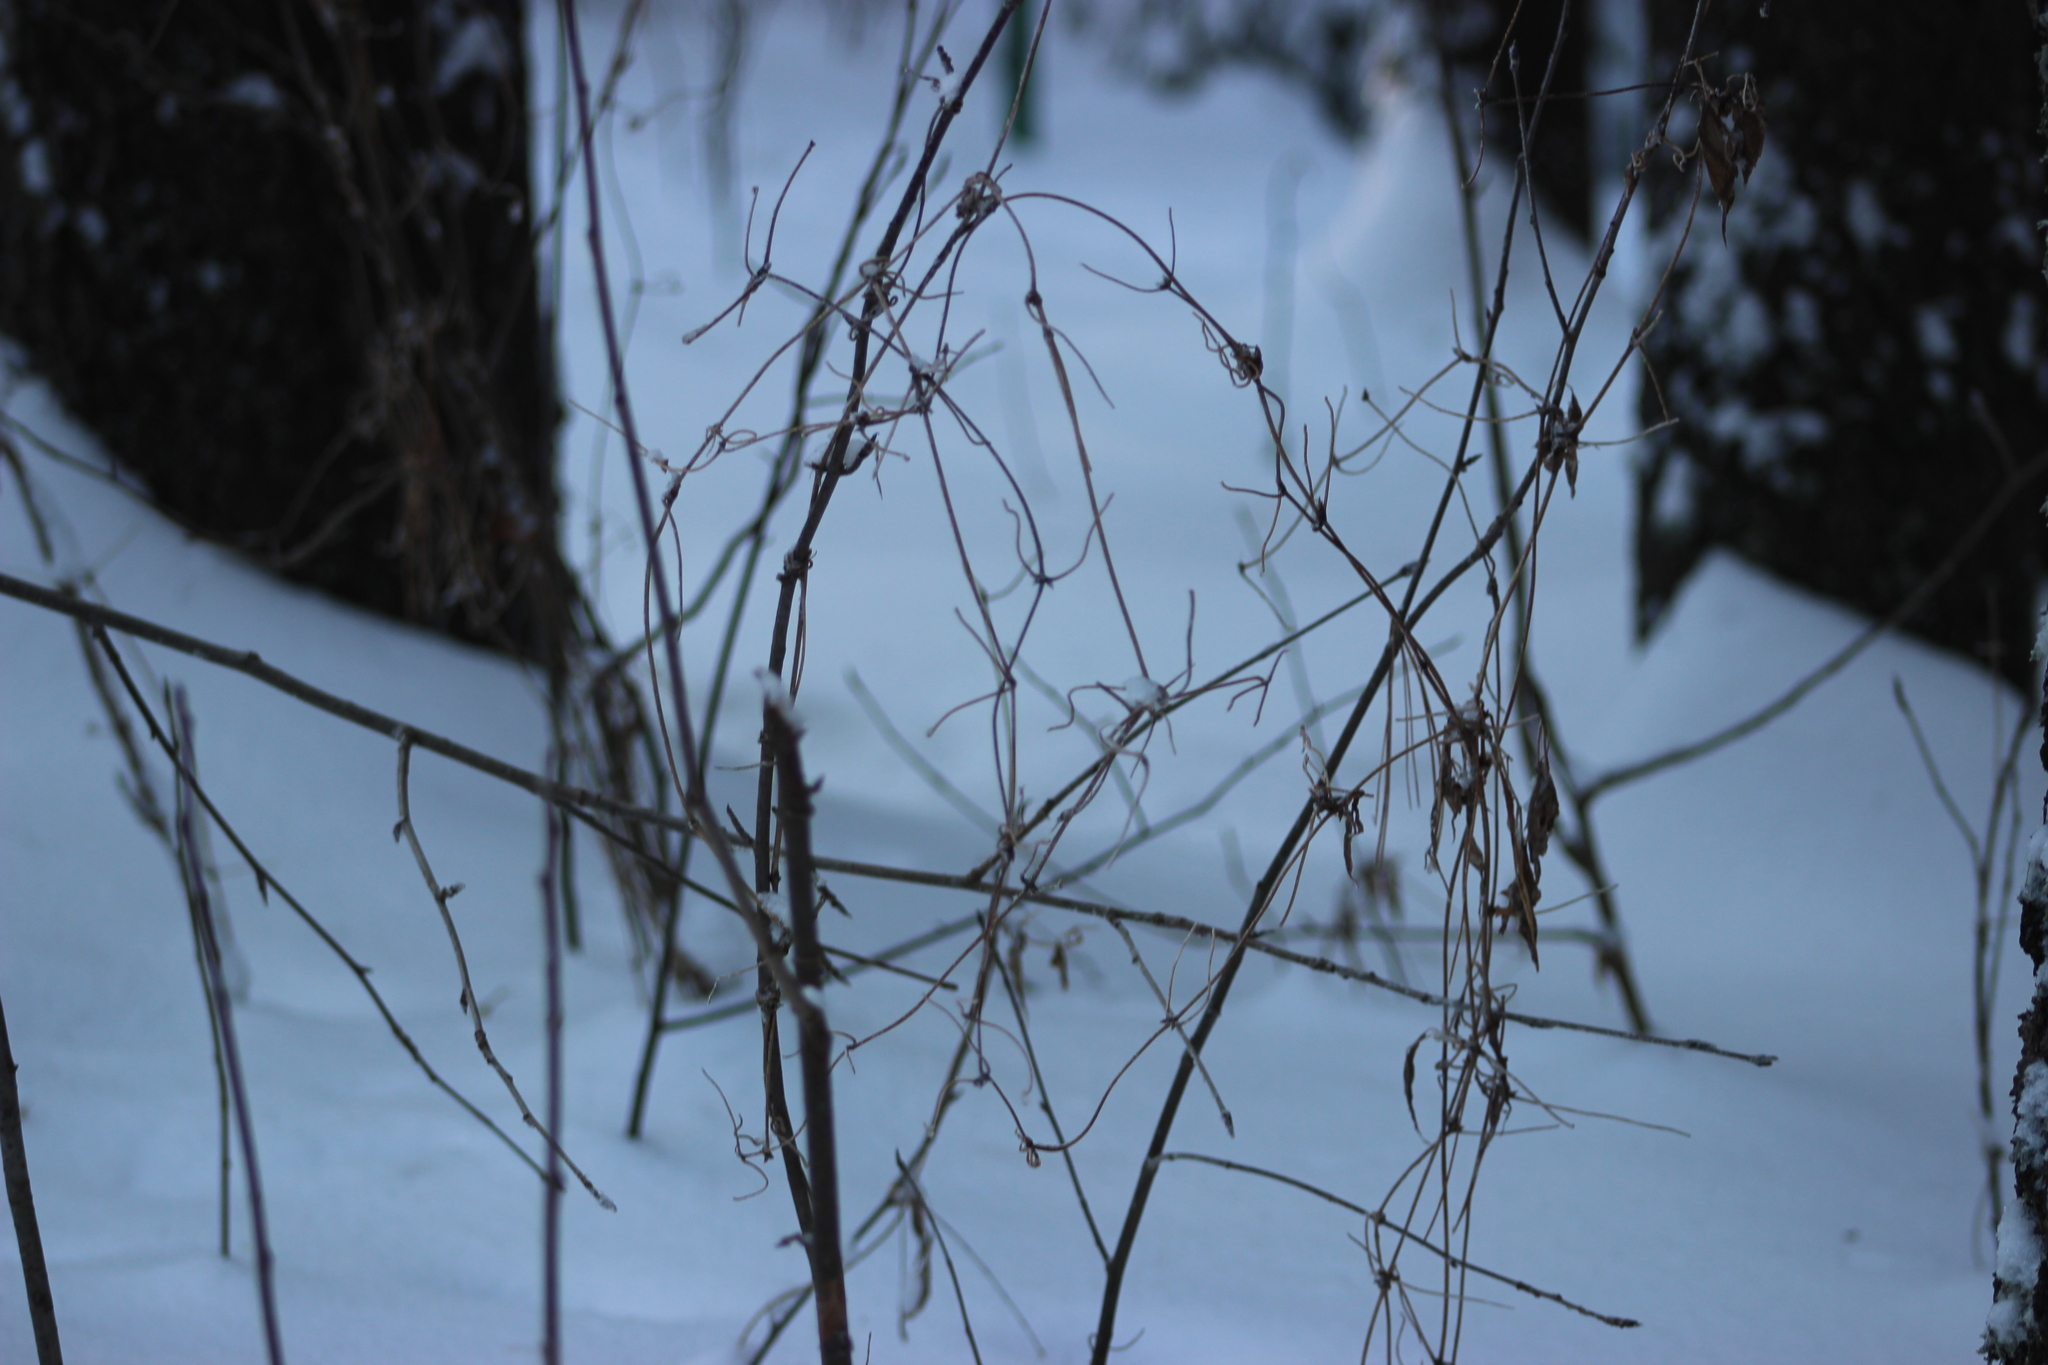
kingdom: Plantae
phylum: Tracheophyta
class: Magnoliopsida
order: Ranunculales
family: Ranunculaceae
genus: Clematis
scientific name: Clematis sibirica
